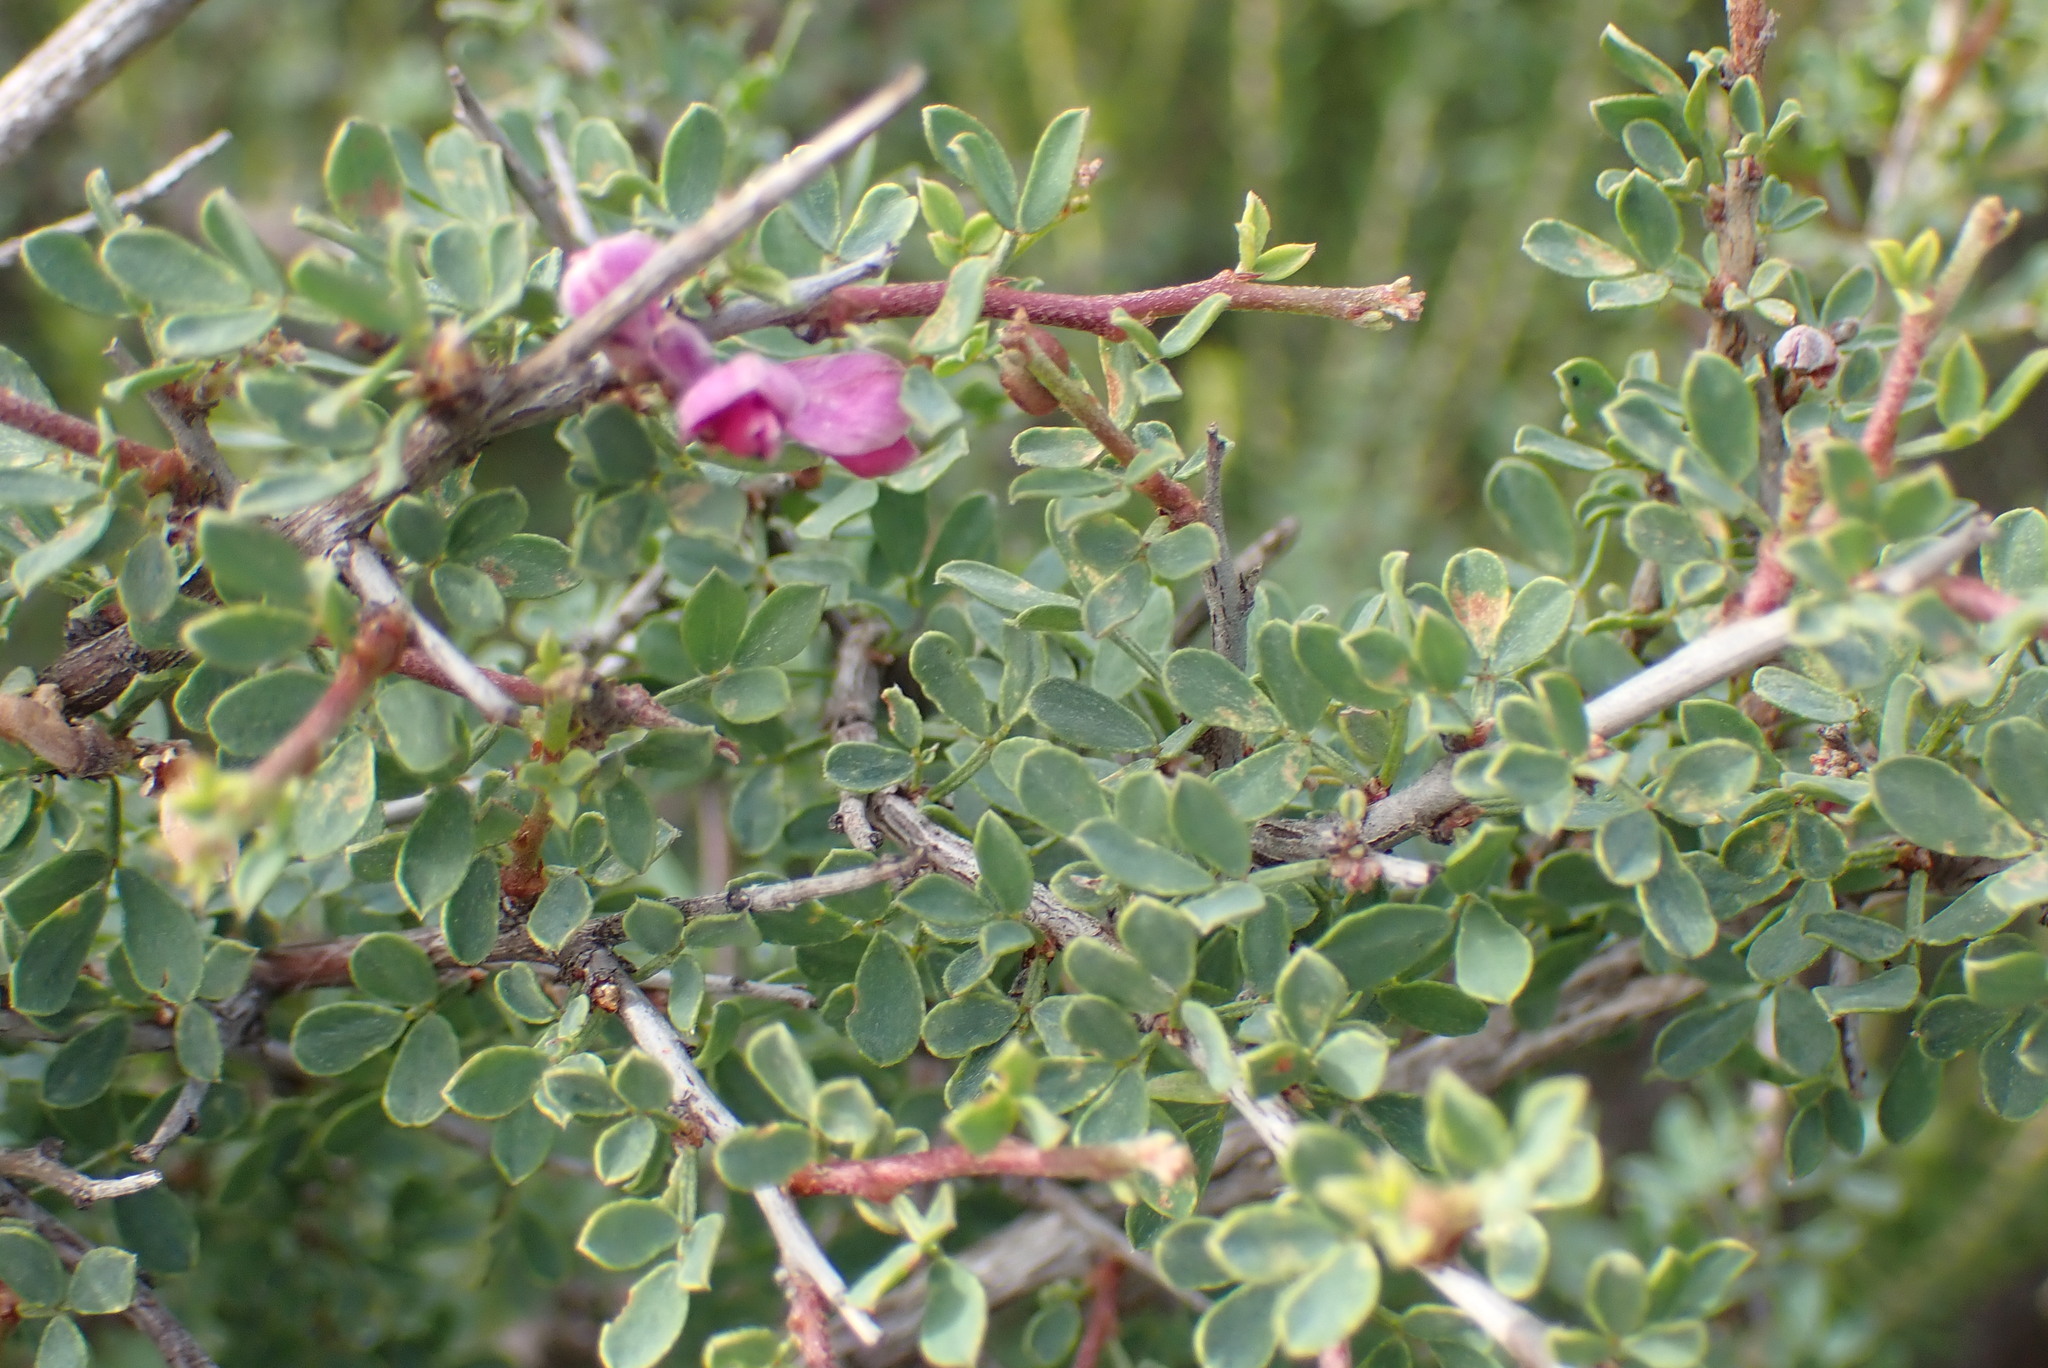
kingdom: Plantae
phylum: Tracheophyta
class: Magnoliopsida
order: Fabales
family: Fabaceae
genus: Indigofera
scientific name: Indigofera nigromontana
